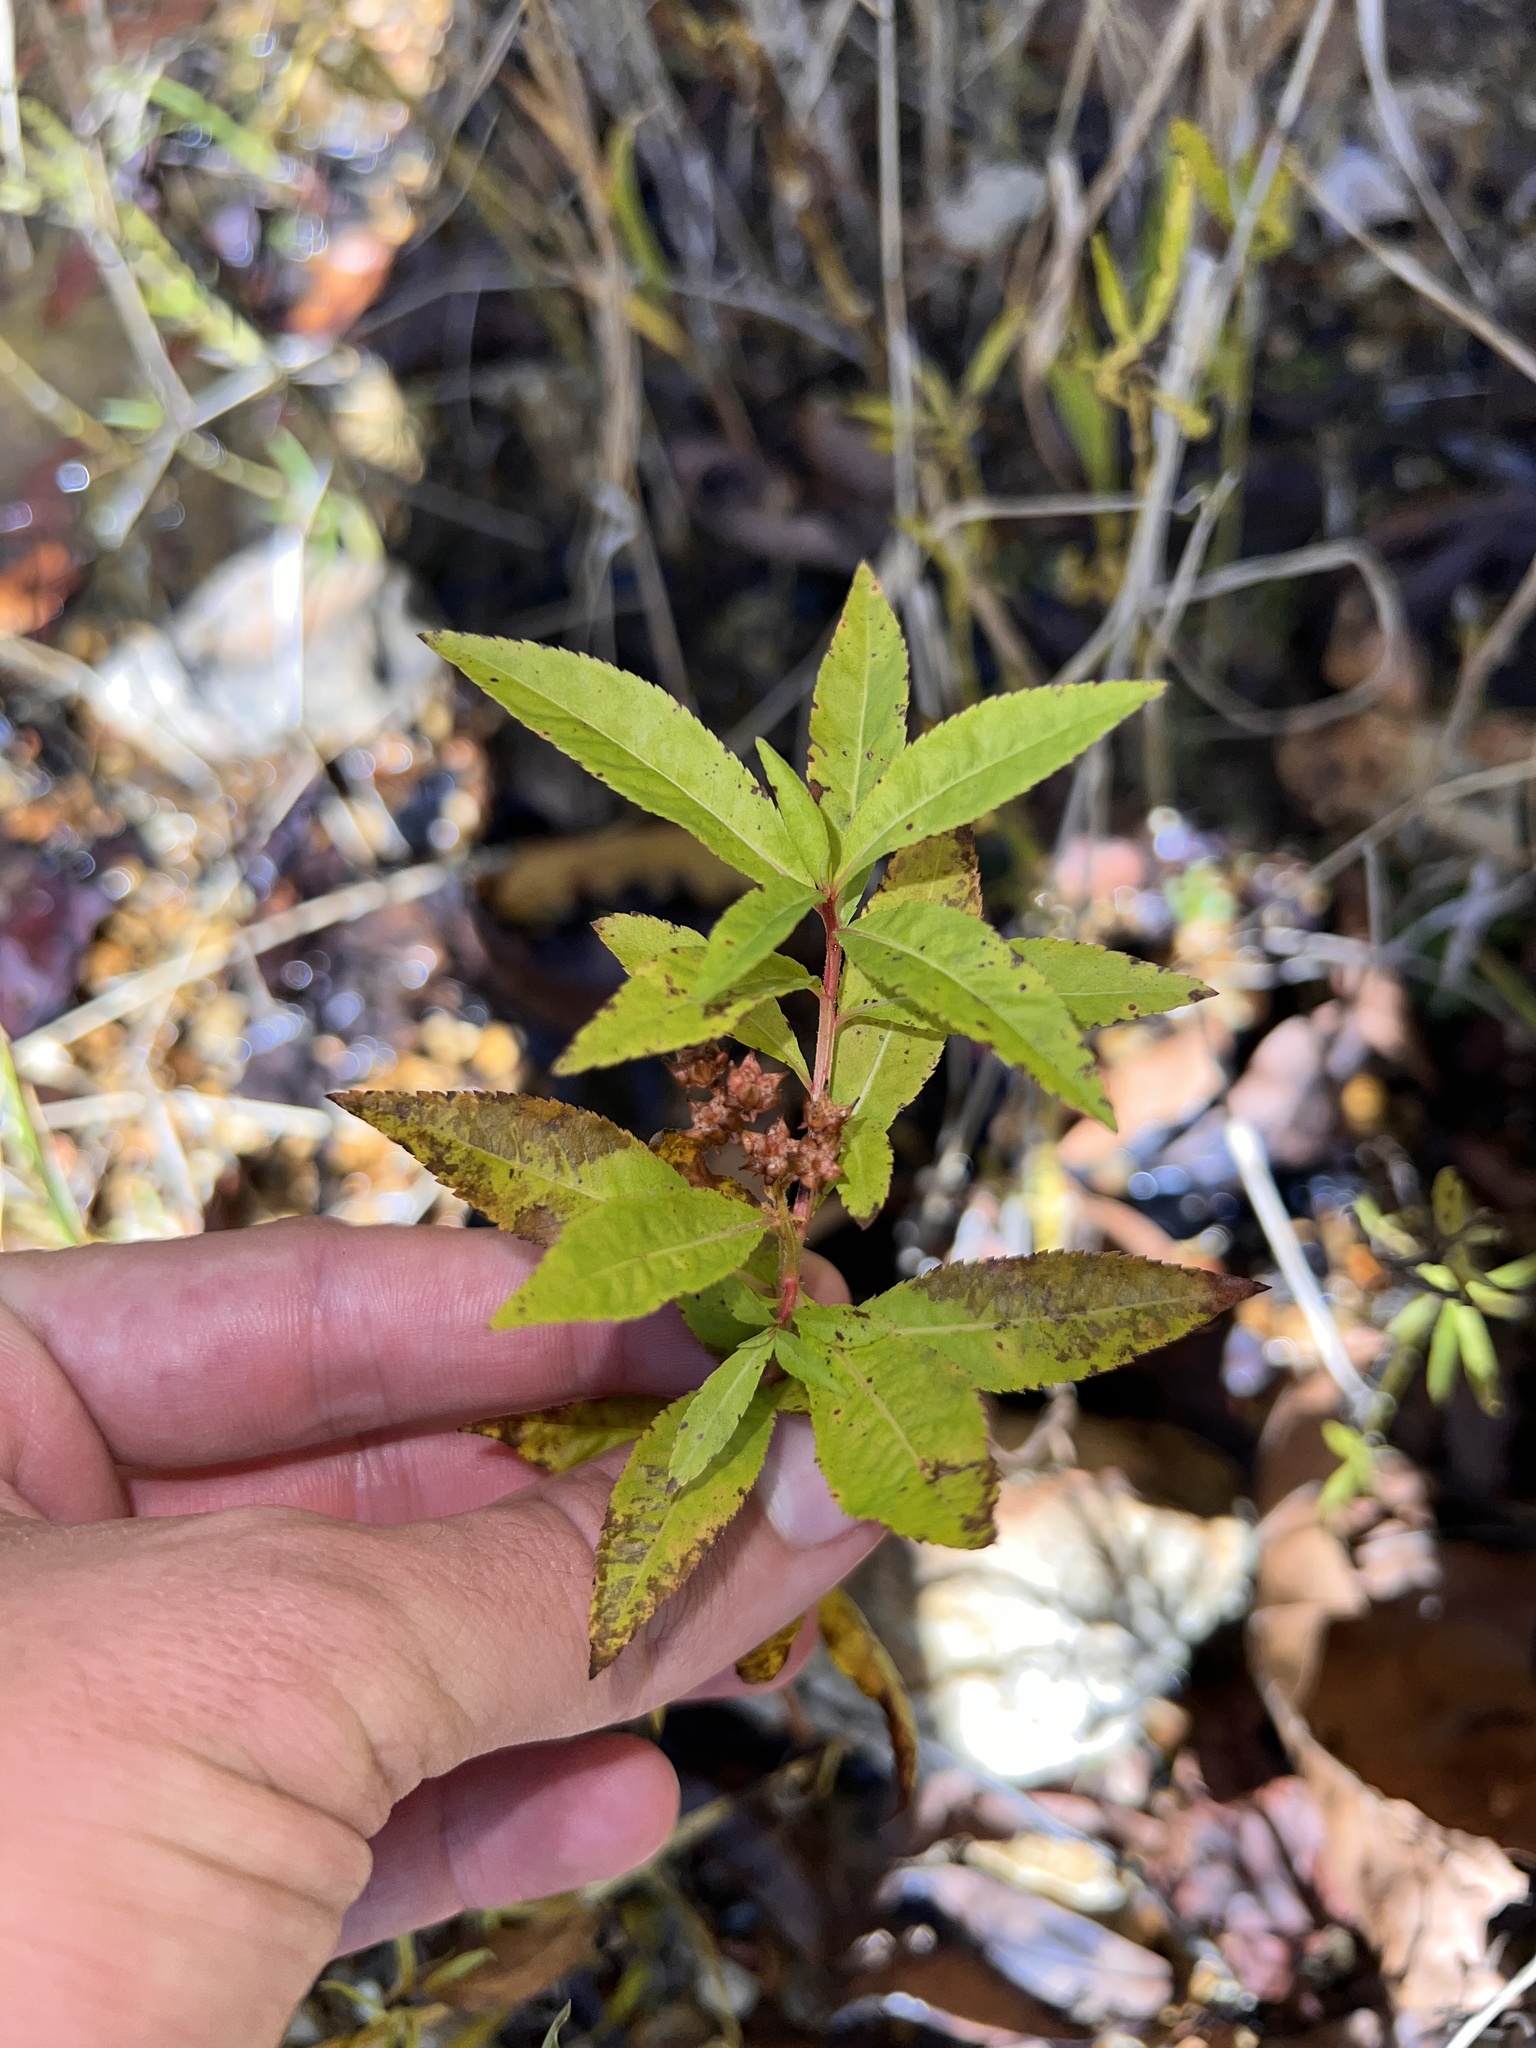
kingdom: Plantae
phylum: Tracheophyta
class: Magnoliopsida
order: Saxifragales
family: Penthoraceae
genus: Penthorum
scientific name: Penthorum sedoides
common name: Ditch stonecrop
